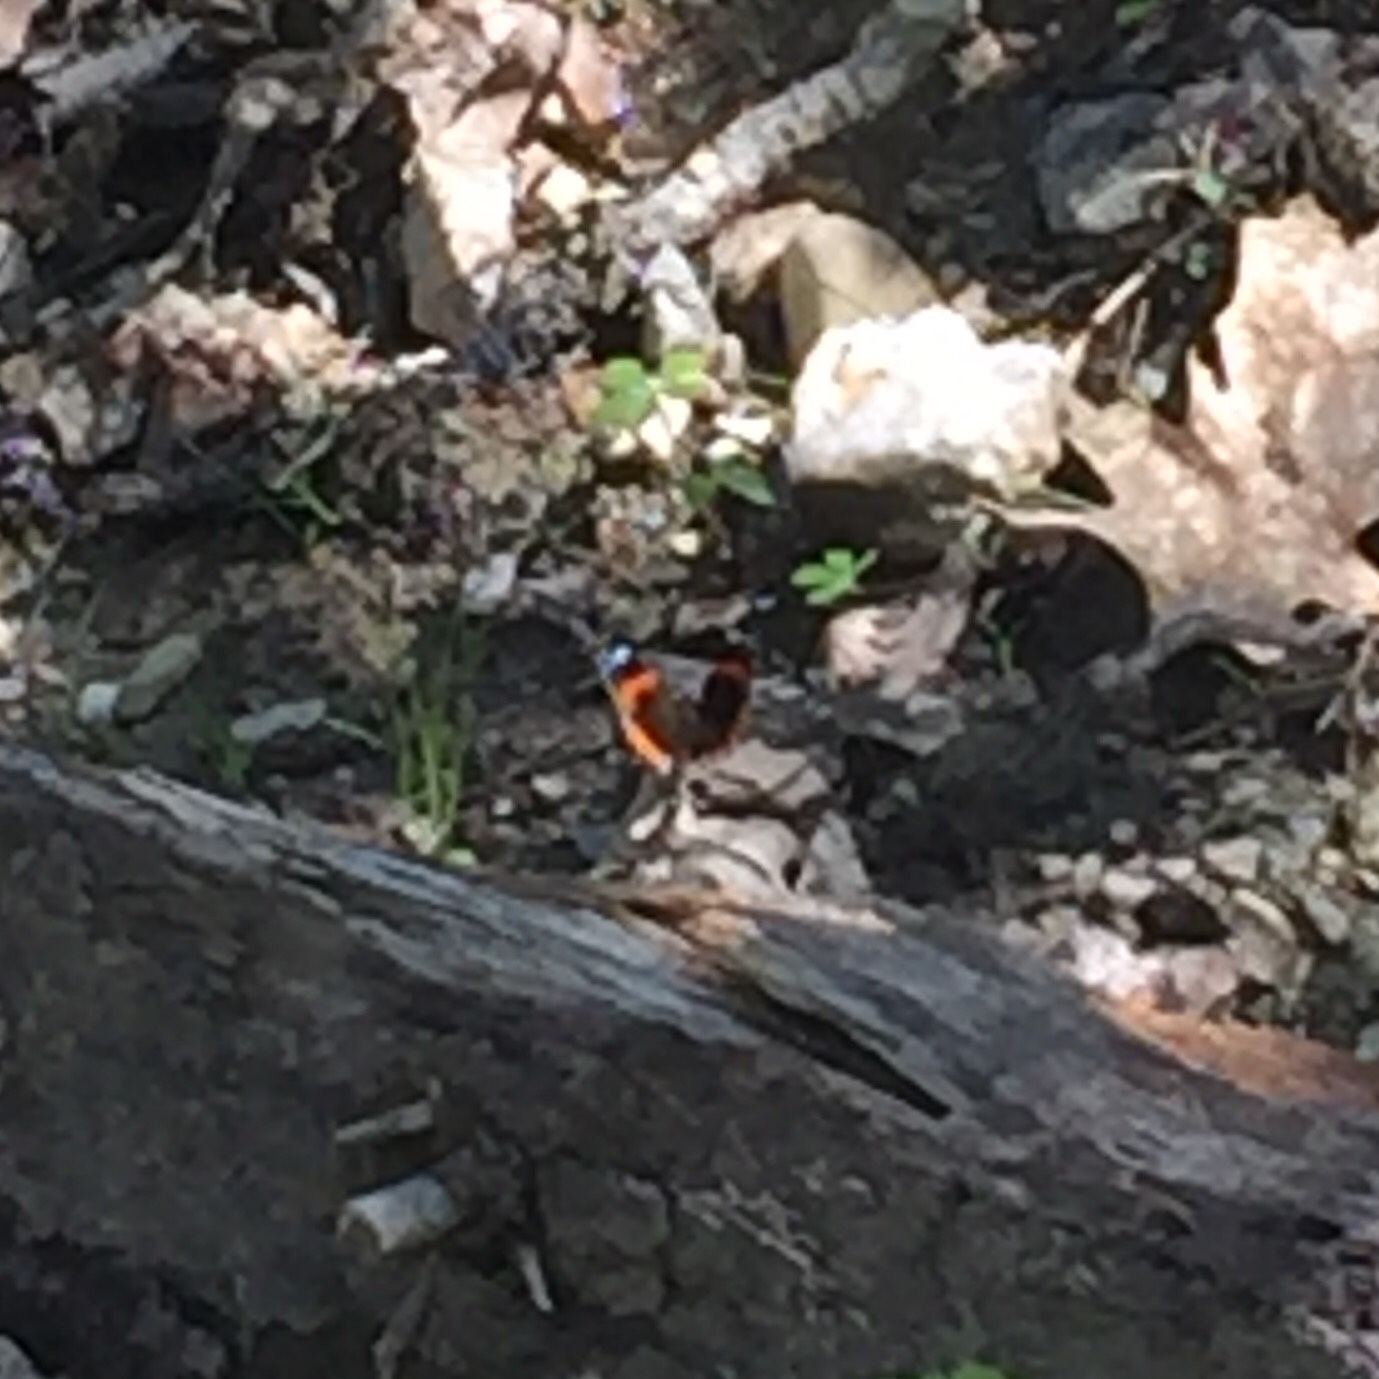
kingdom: Animalia
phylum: Arthropoda
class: Insecta
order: Lepidoptera
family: Nymphalidae
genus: Vanessa
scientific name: Vanessa atalanta
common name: Red admiral
